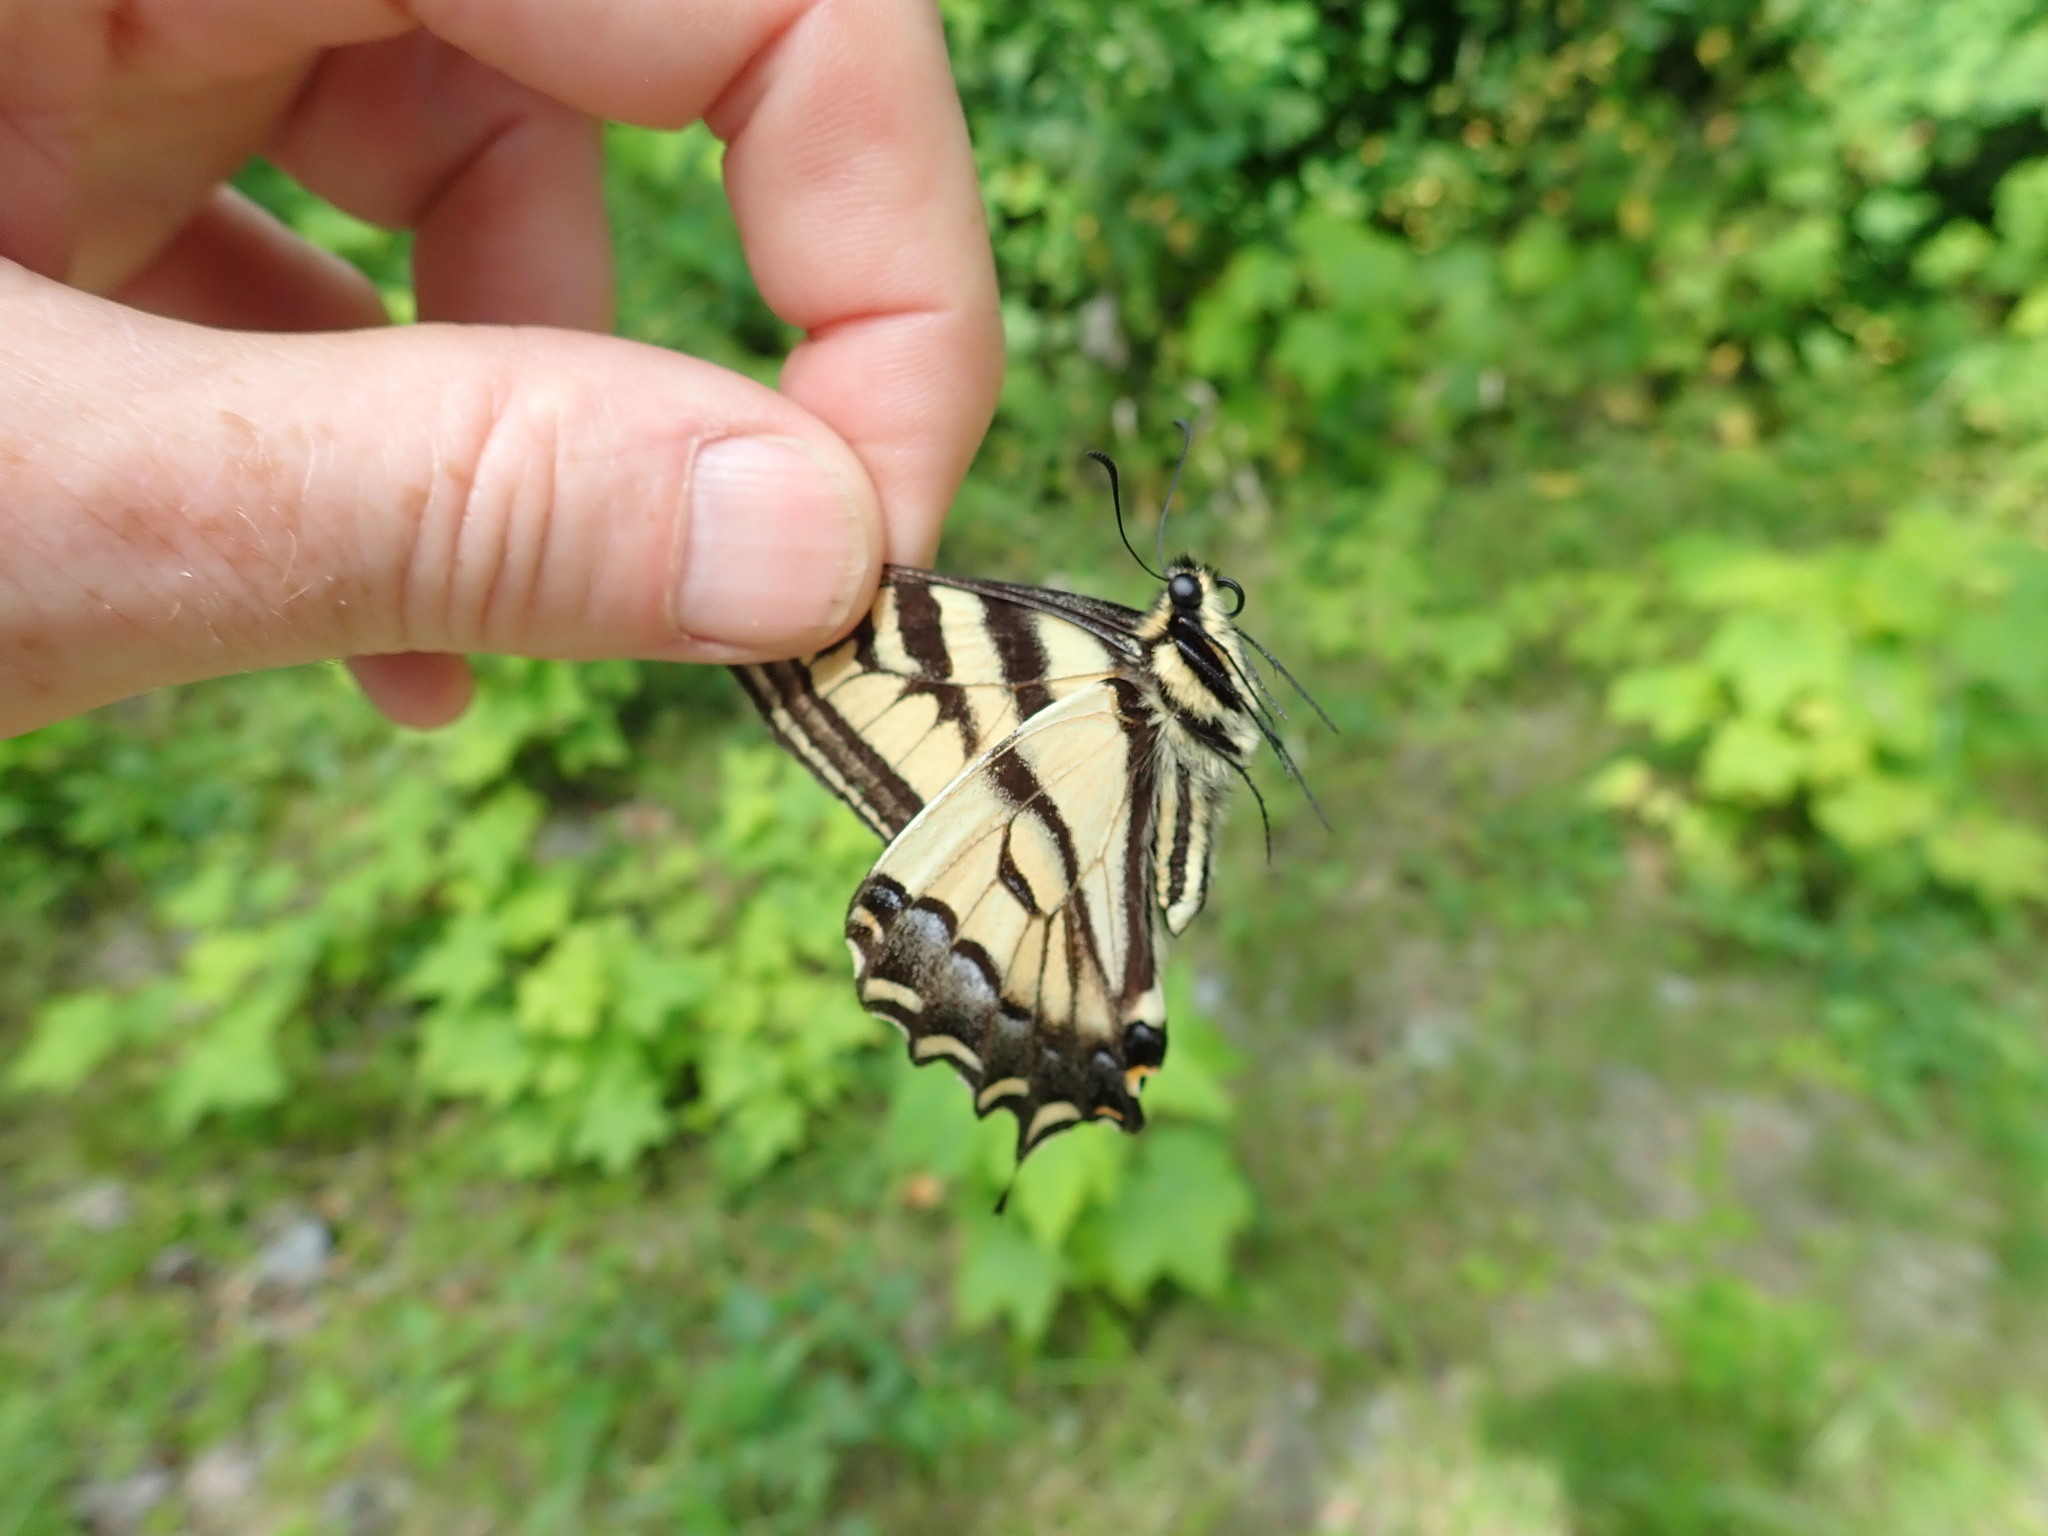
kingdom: Animalia
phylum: Arthropoda
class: Insecta
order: Lepidoptera
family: Papilionidae
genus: Papilio
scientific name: Papilio rutulus
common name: Western tiger swallowtail
